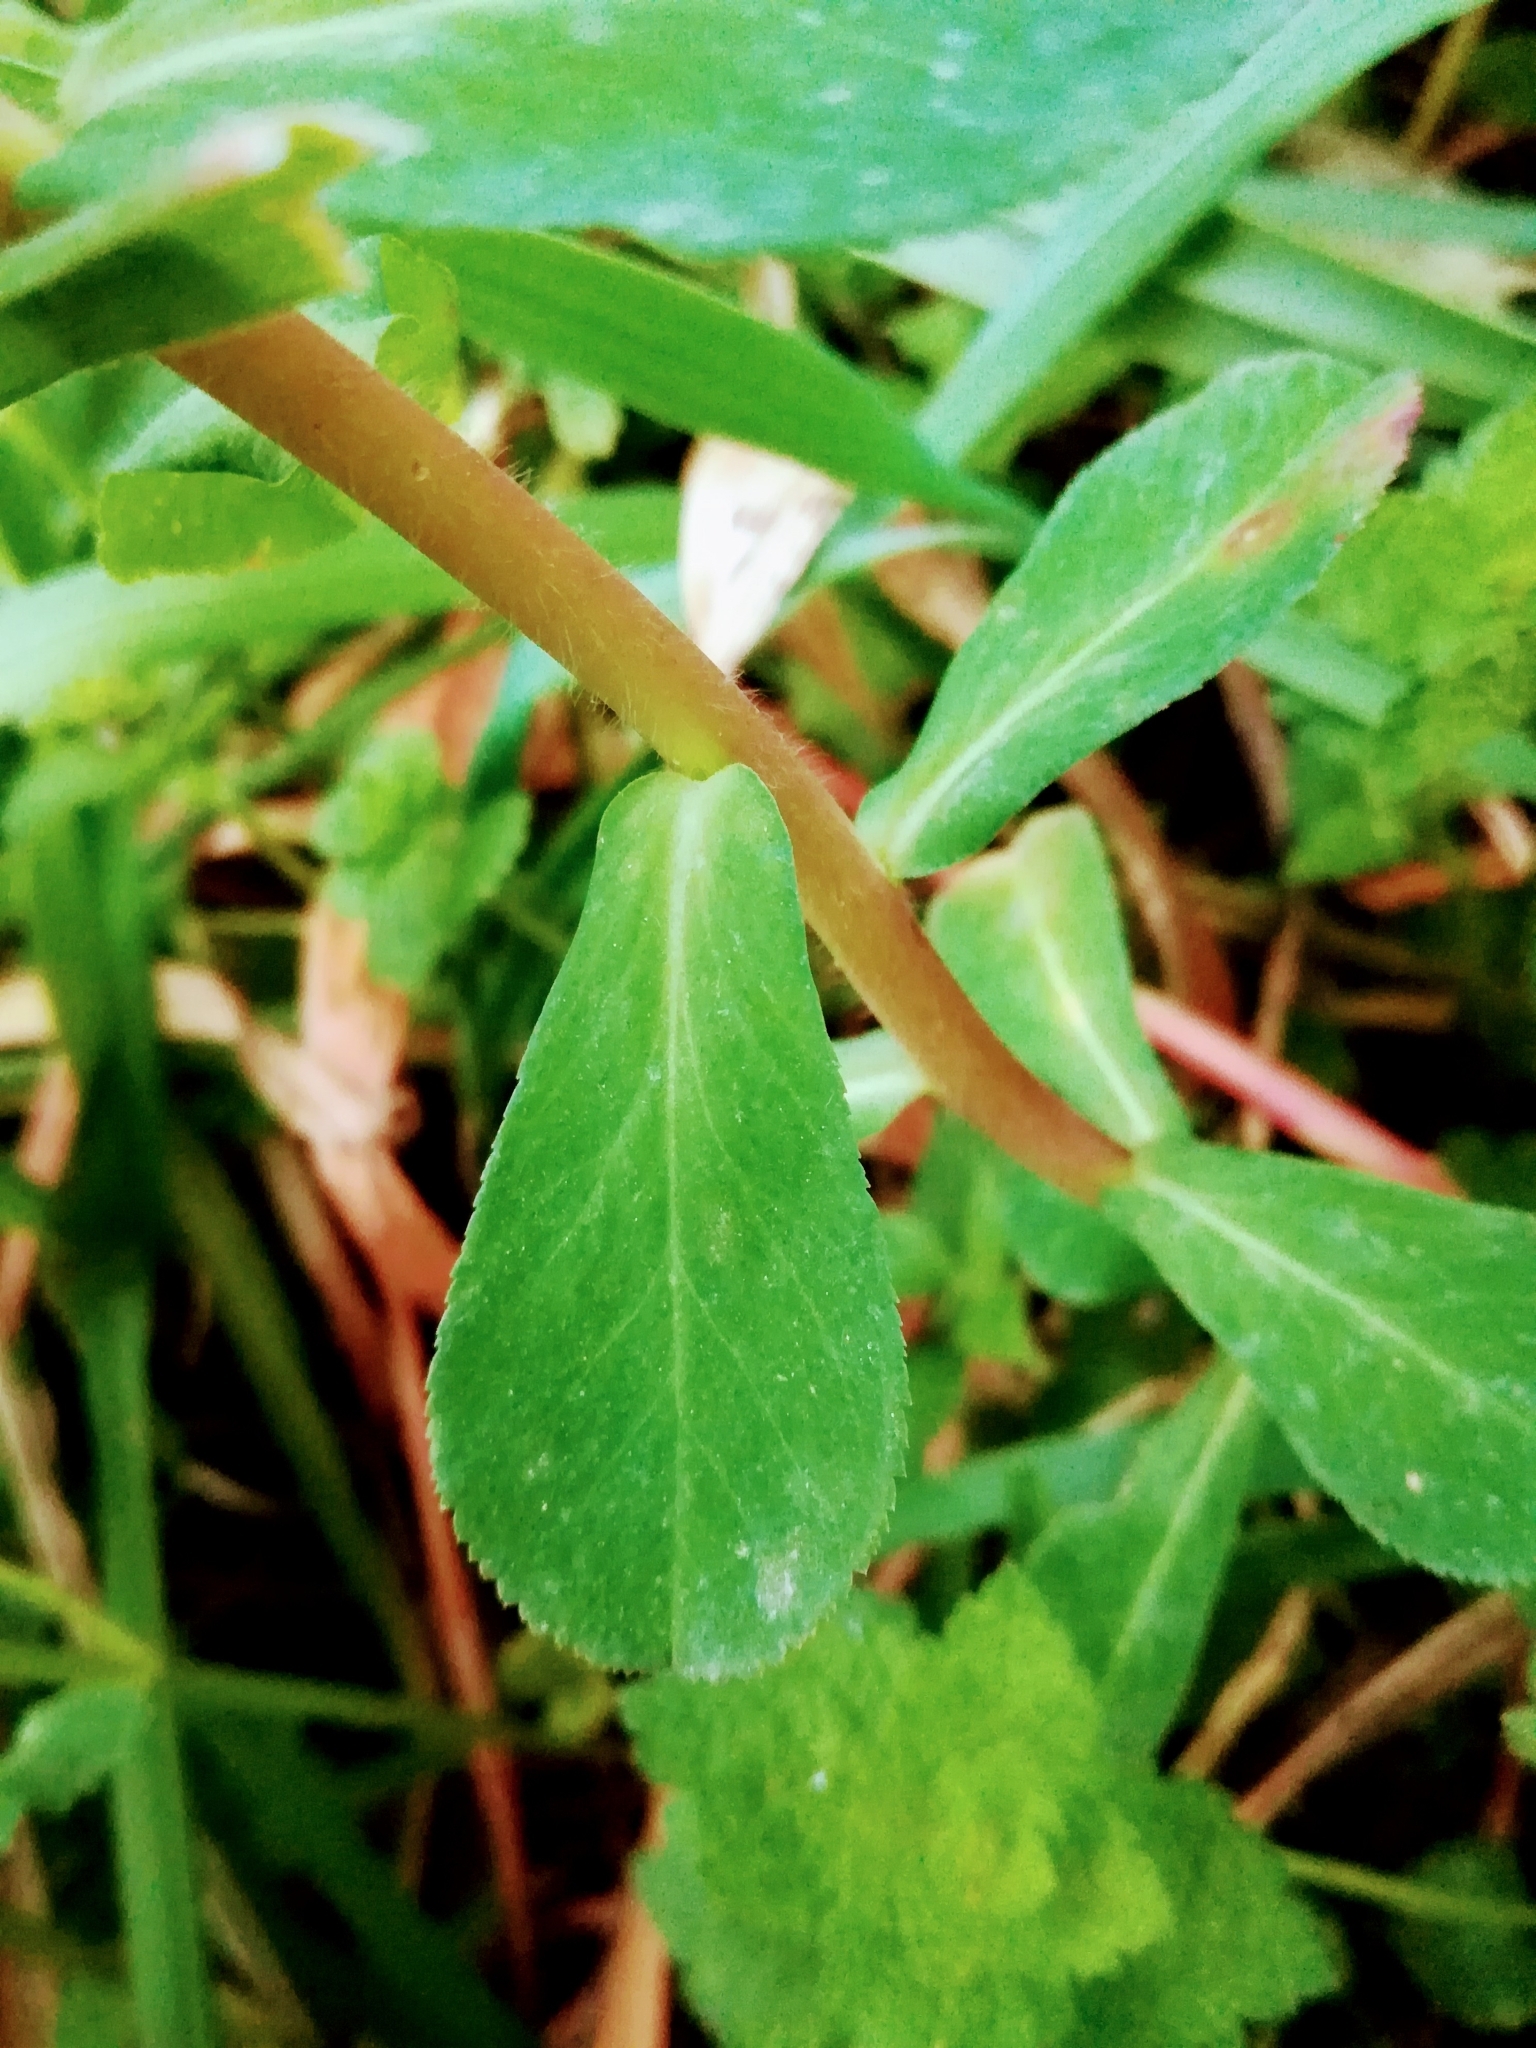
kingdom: Plantae
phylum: Tracheophyta
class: Magnoliopsida
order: Malpighiales
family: Euphorbiaceae
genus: Euphorbia
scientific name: Euphorbia helioscopia
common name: Sun spurge
